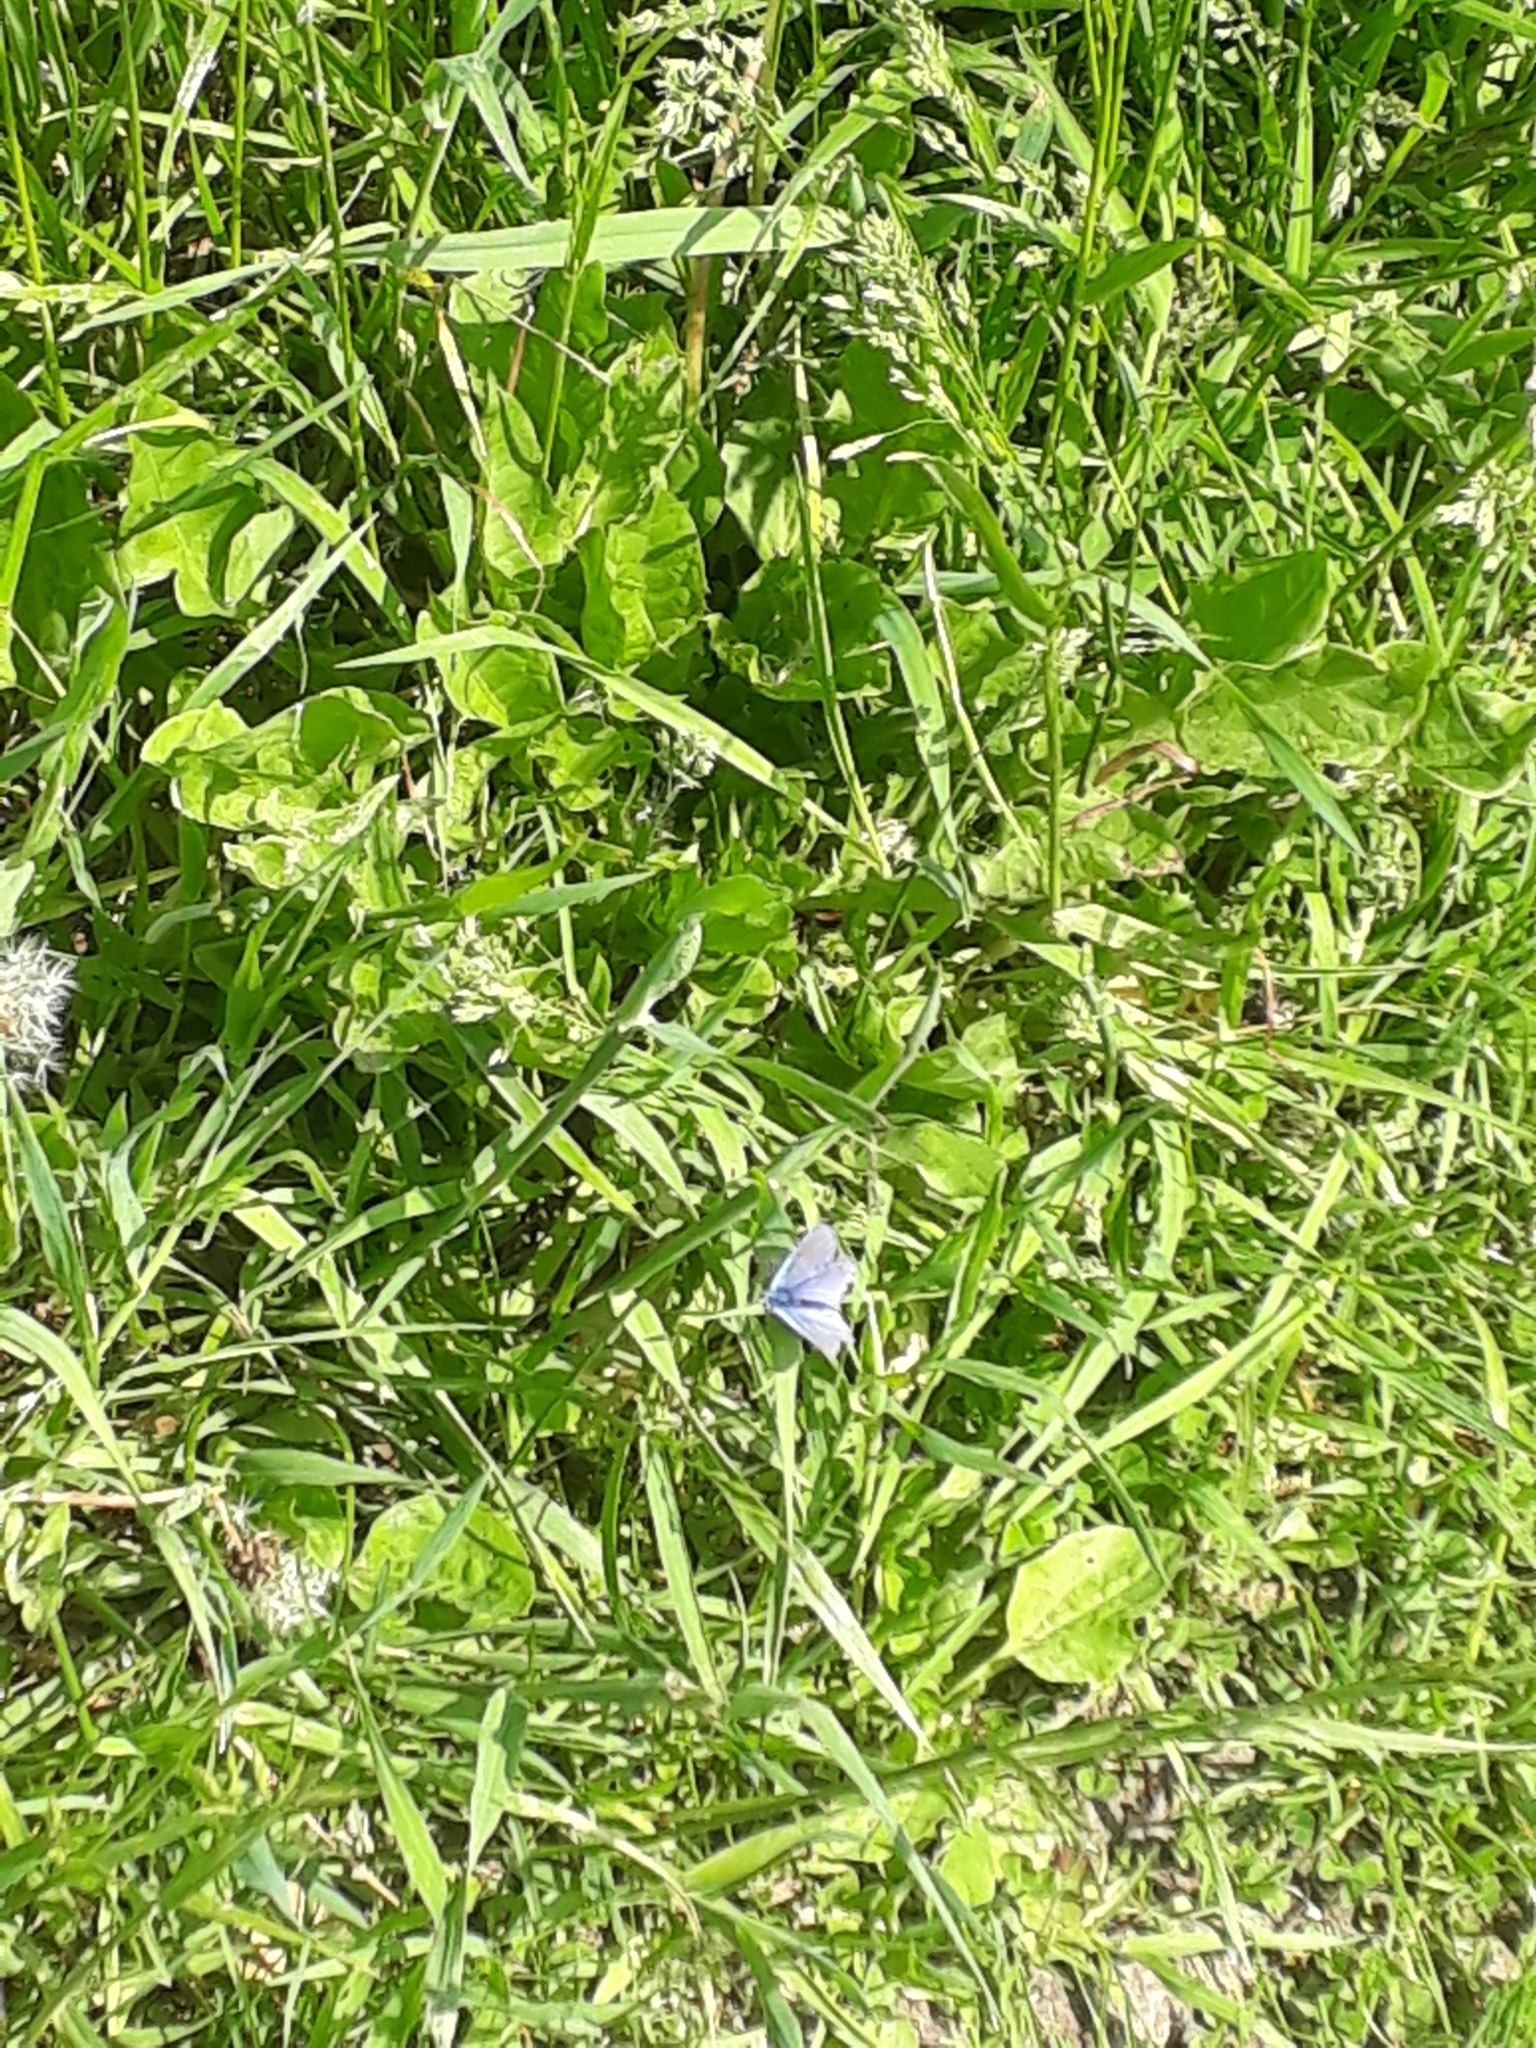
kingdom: Animalia
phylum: Arthropoda
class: Insecta
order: Lepidoptera
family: Lycaenidae
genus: Polyommatus
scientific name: Polyommatus icarus
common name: Common blue
